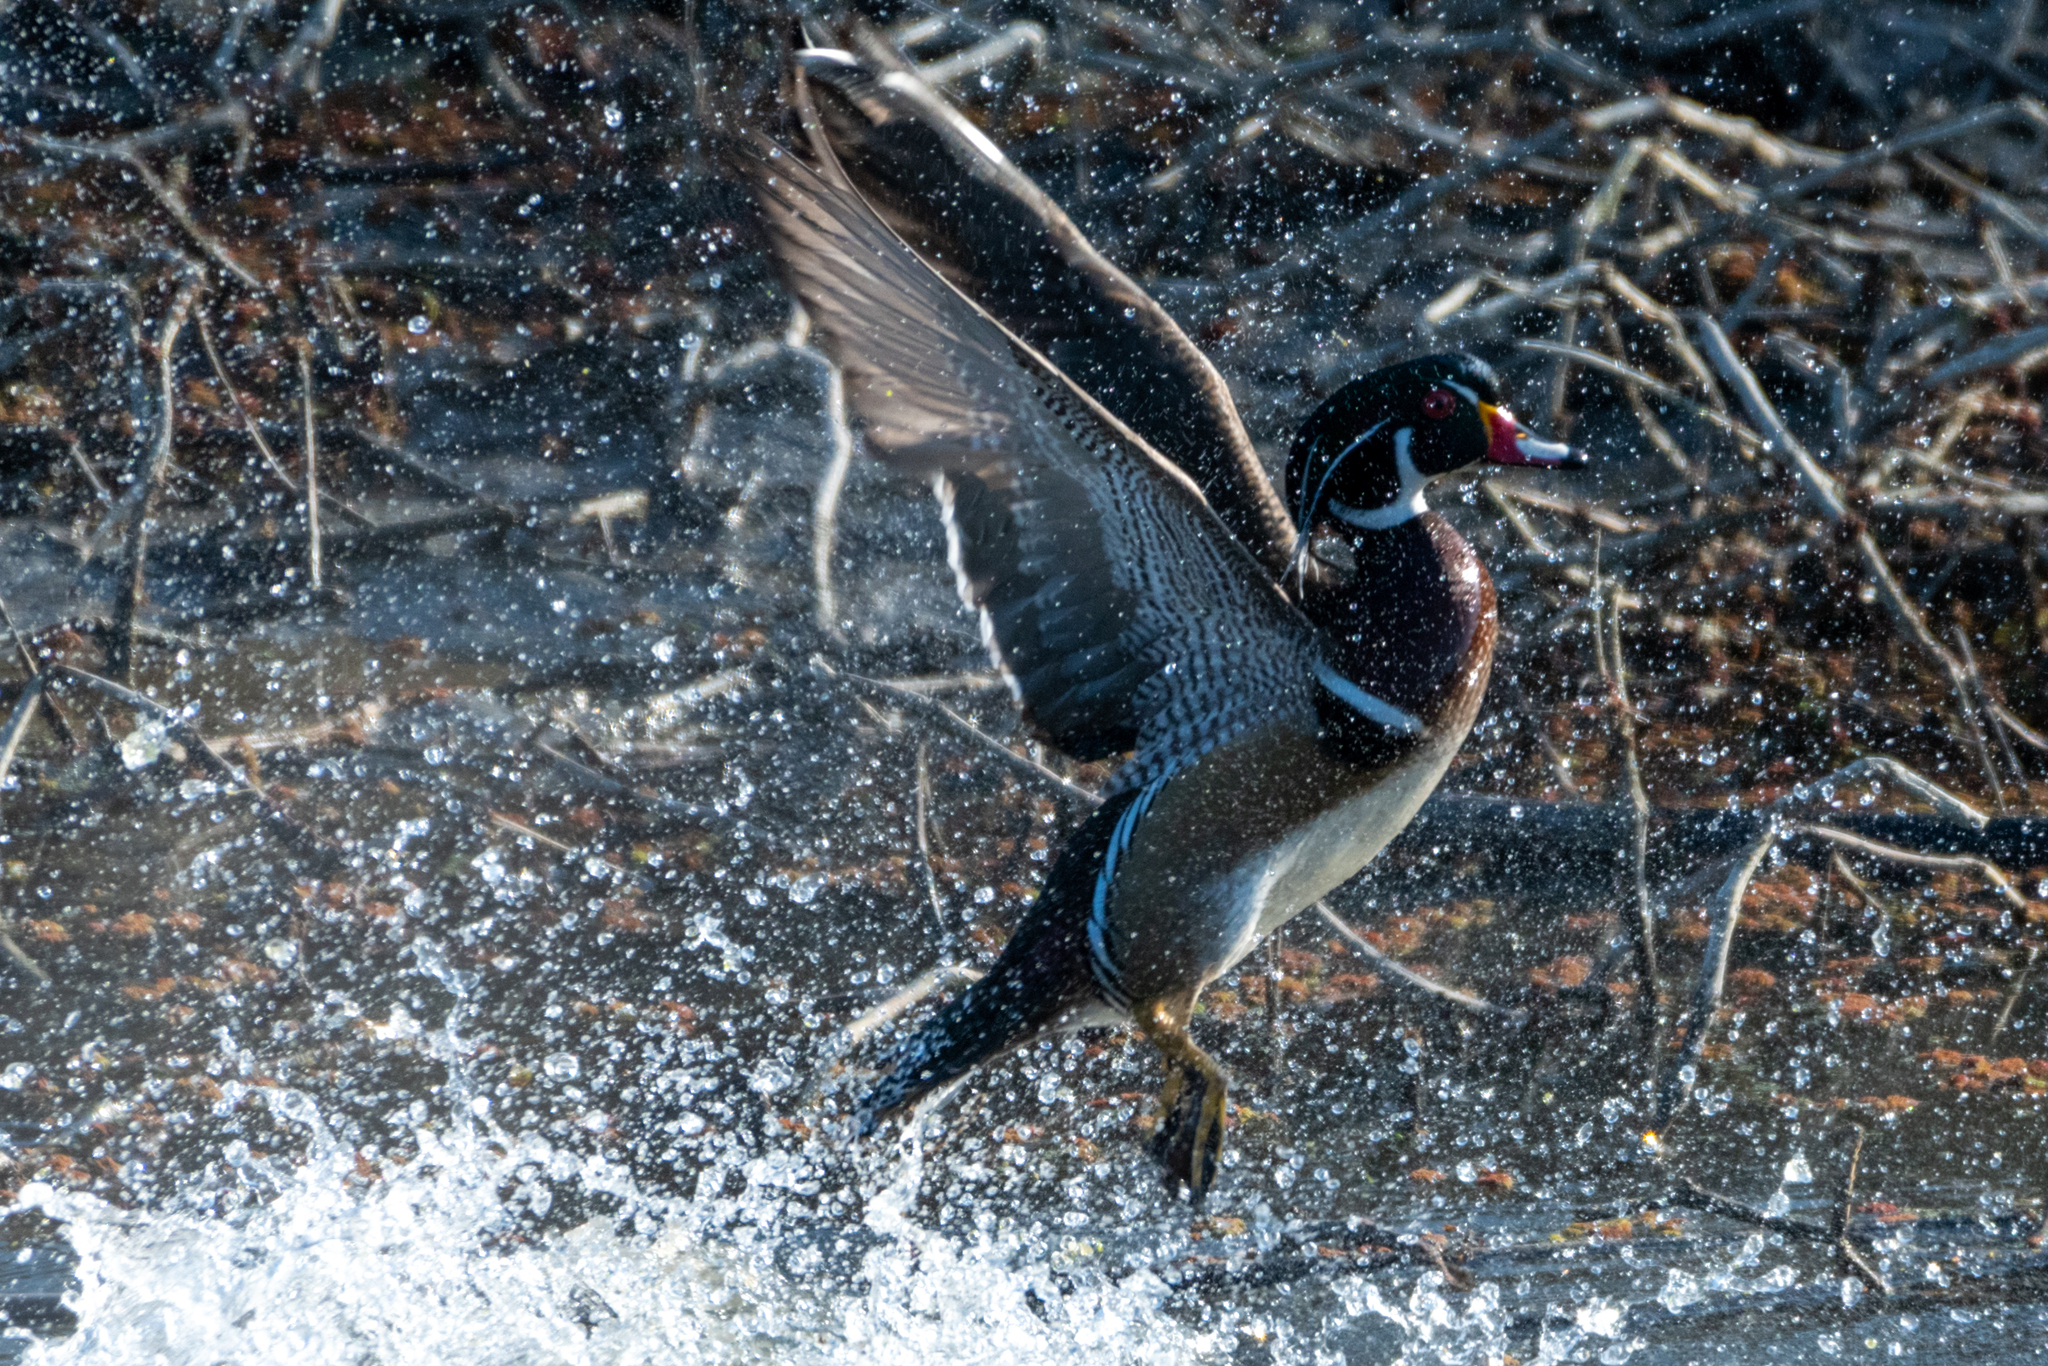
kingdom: Animalia
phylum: Chordata
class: Aves
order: Anseriformes
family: Anatidae
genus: Aix
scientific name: Aix sponsa
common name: Wood duck
